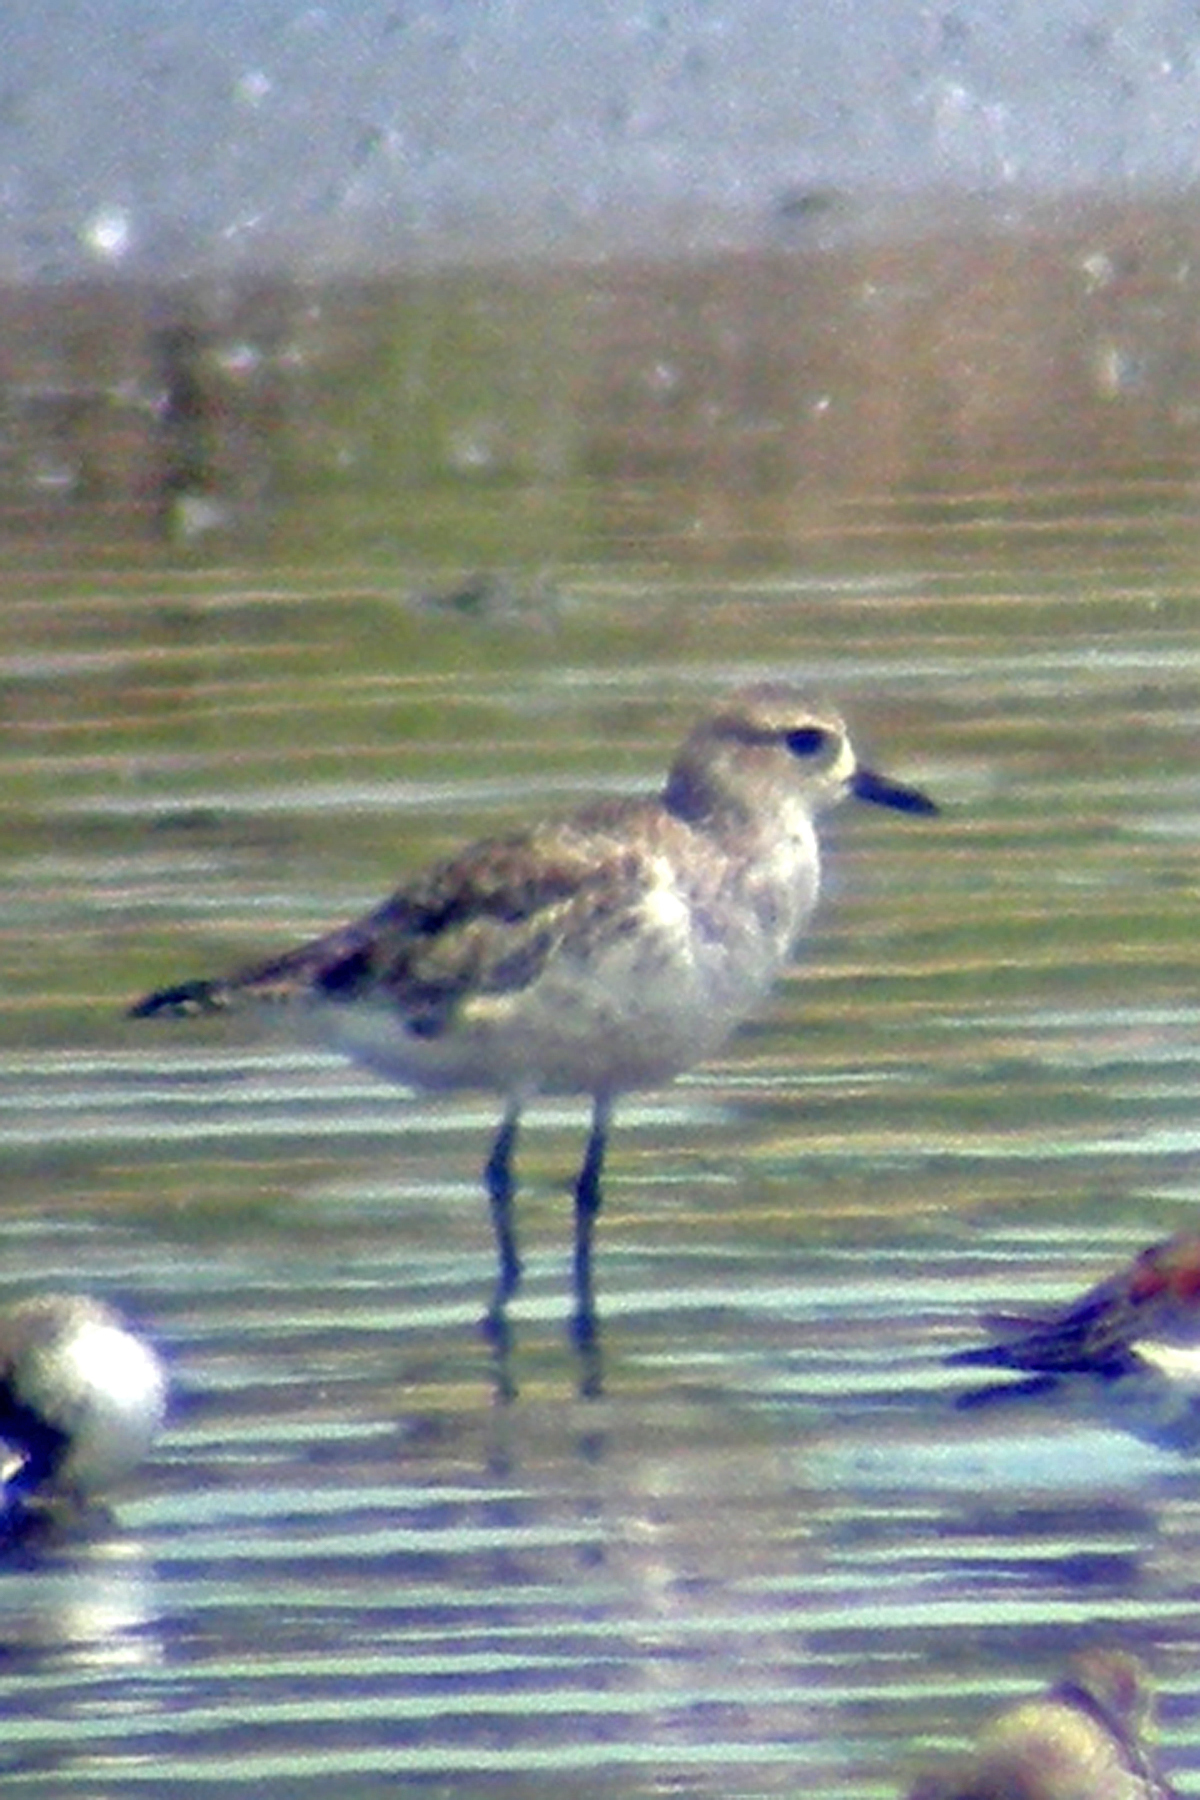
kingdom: Animalia
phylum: Chordata
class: Aves
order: Charadriiformes
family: Charadriidae
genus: Pluvialis
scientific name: Pluvialis squatarola
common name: Grey plover
